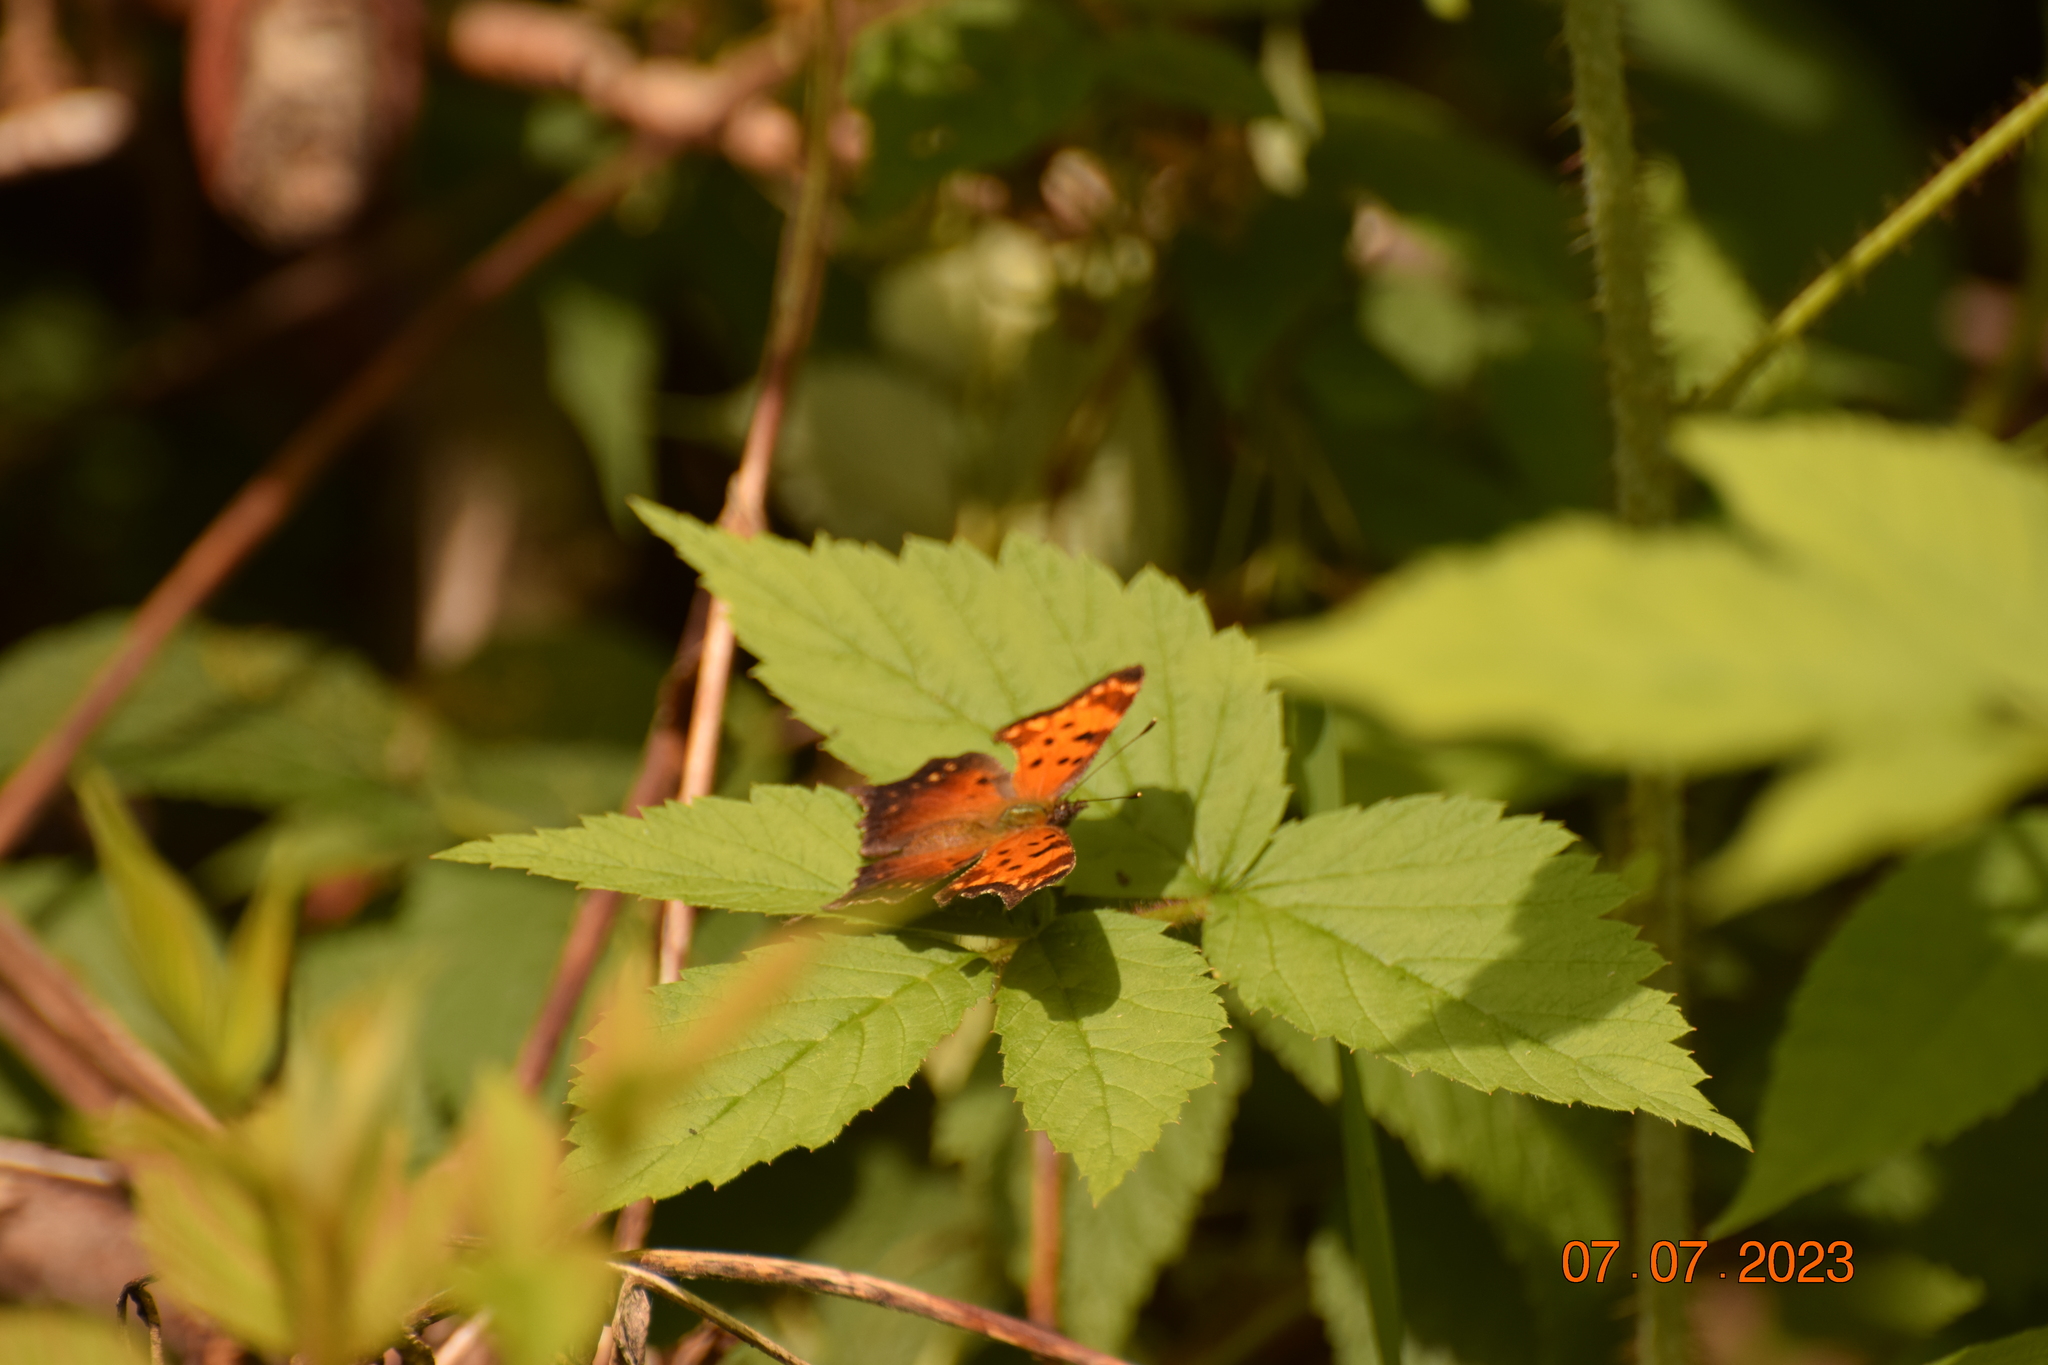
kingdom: Animalia
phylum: Arthropoda
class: Insecta
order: Lepidoptera
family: Nymphalidae
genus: Polygonia
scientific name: Polygonia progne
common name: Gray comma
